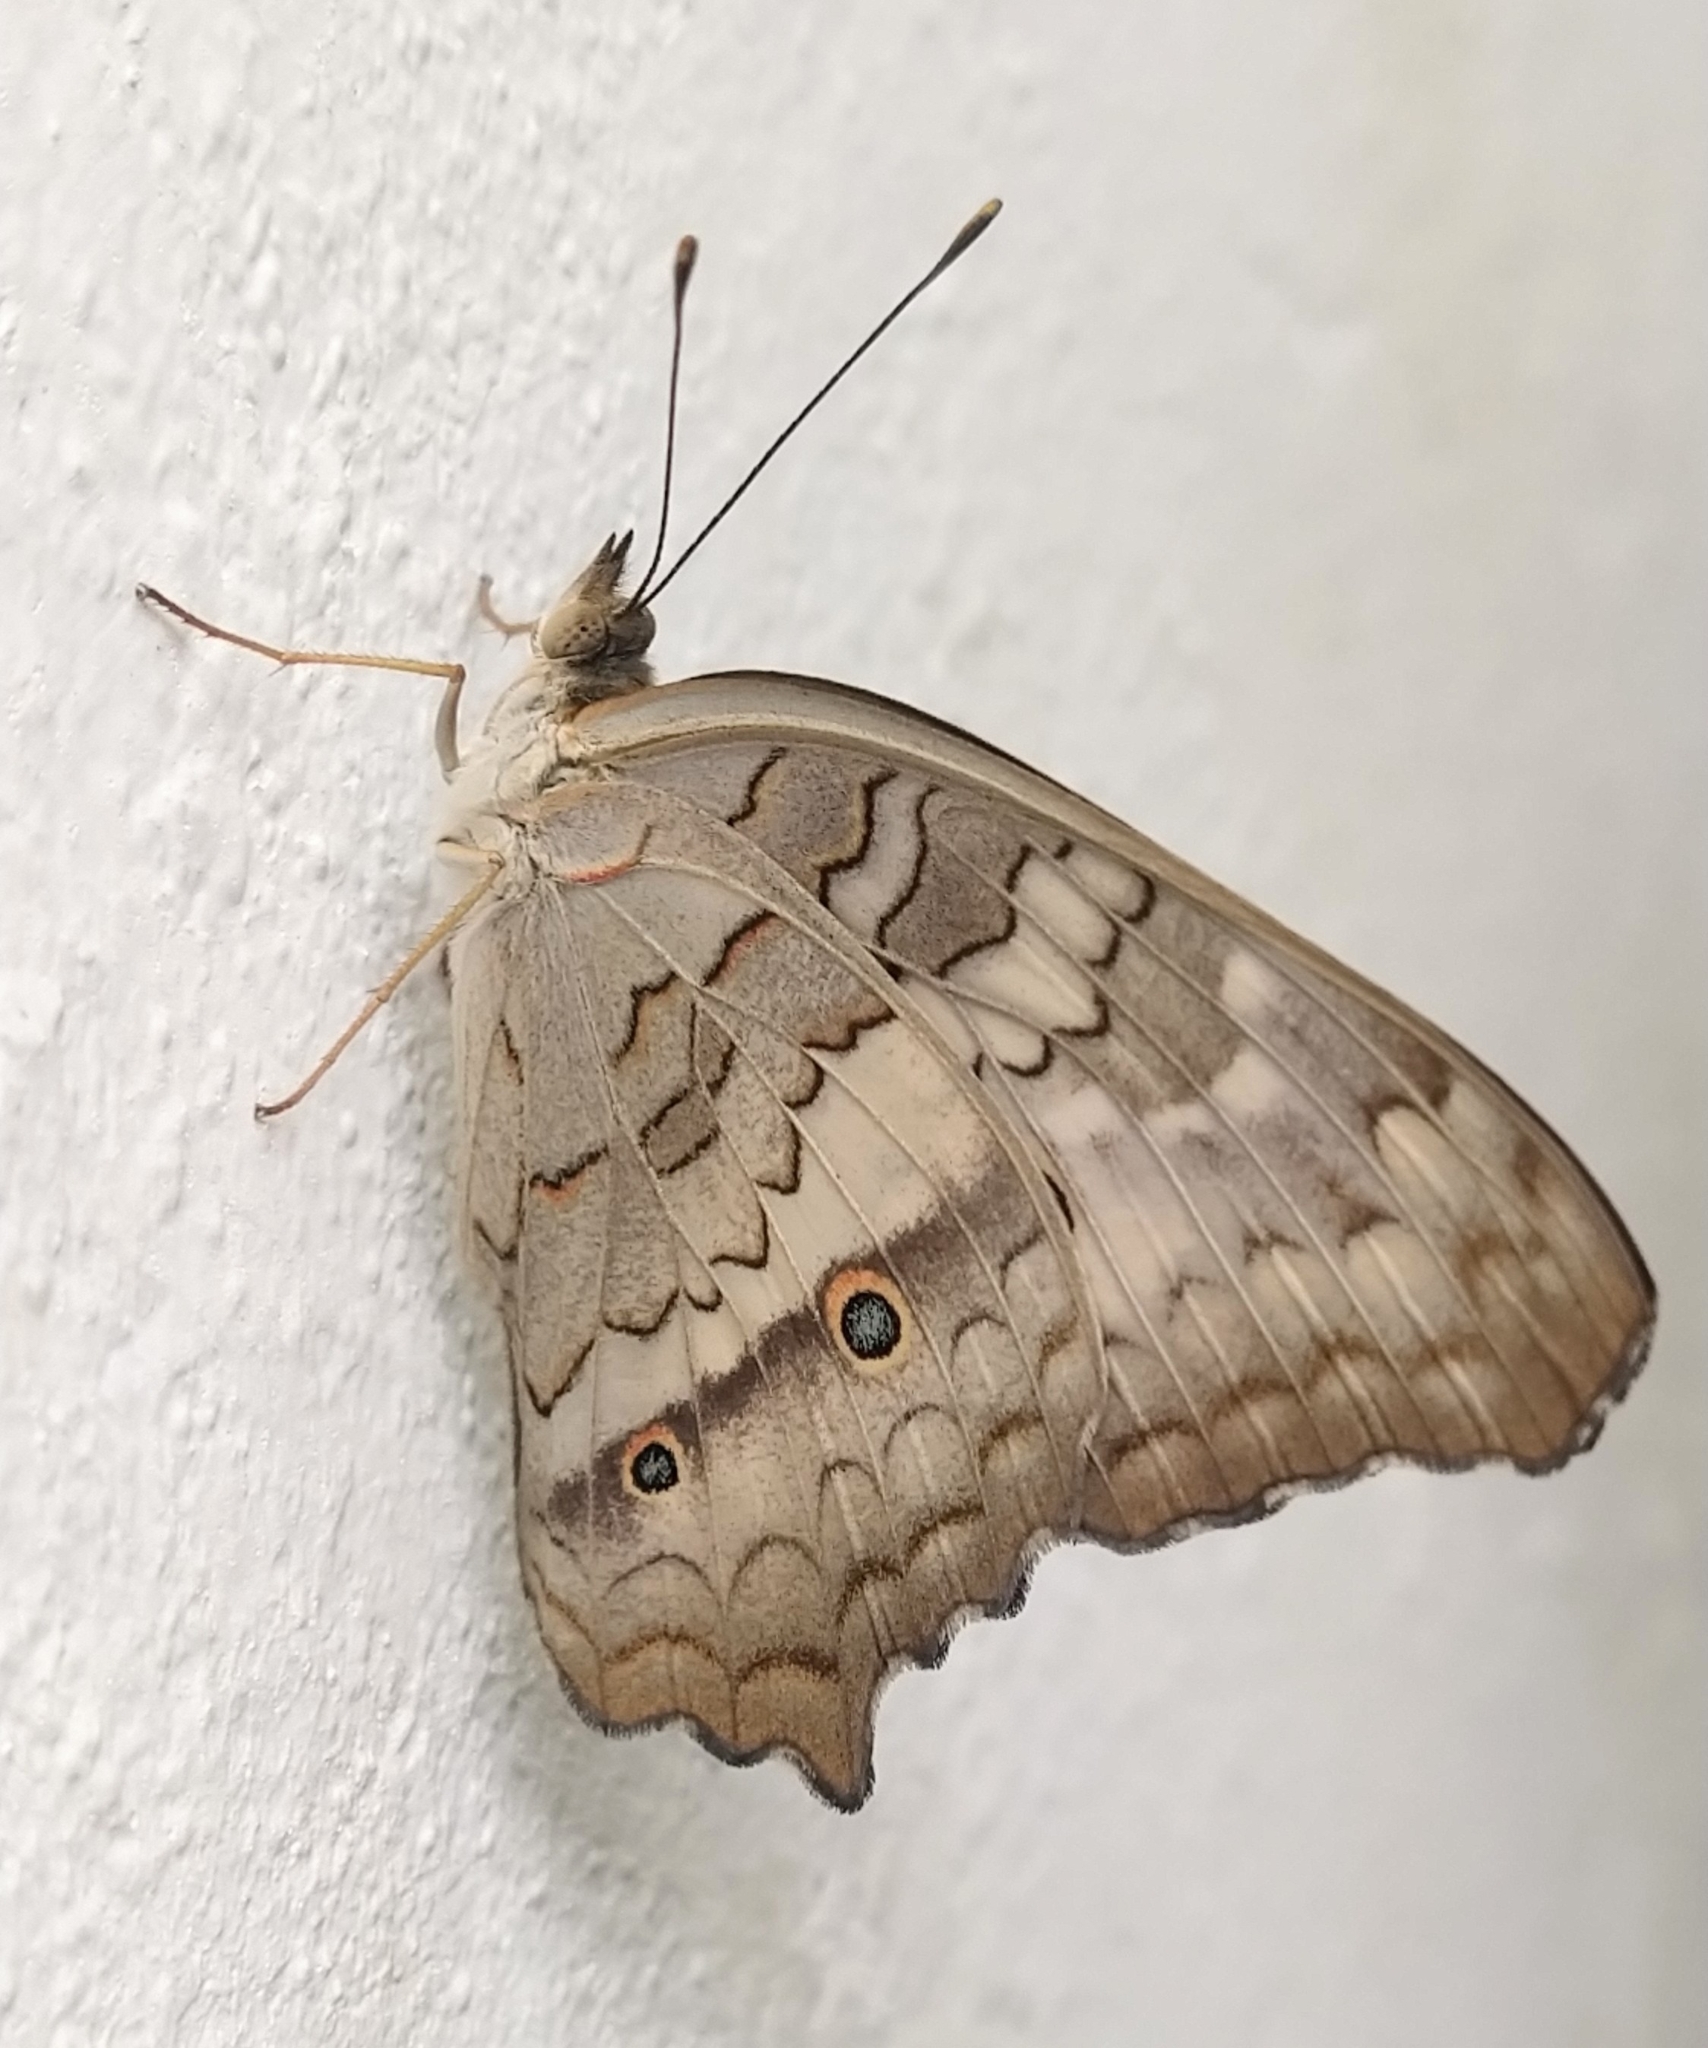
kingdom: Animalia
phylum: Arthropoda
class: Insecta
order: Lepidoptera
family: Nymphalidae
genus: Anartia
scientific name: Anartia jatrophae
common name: White peacock
